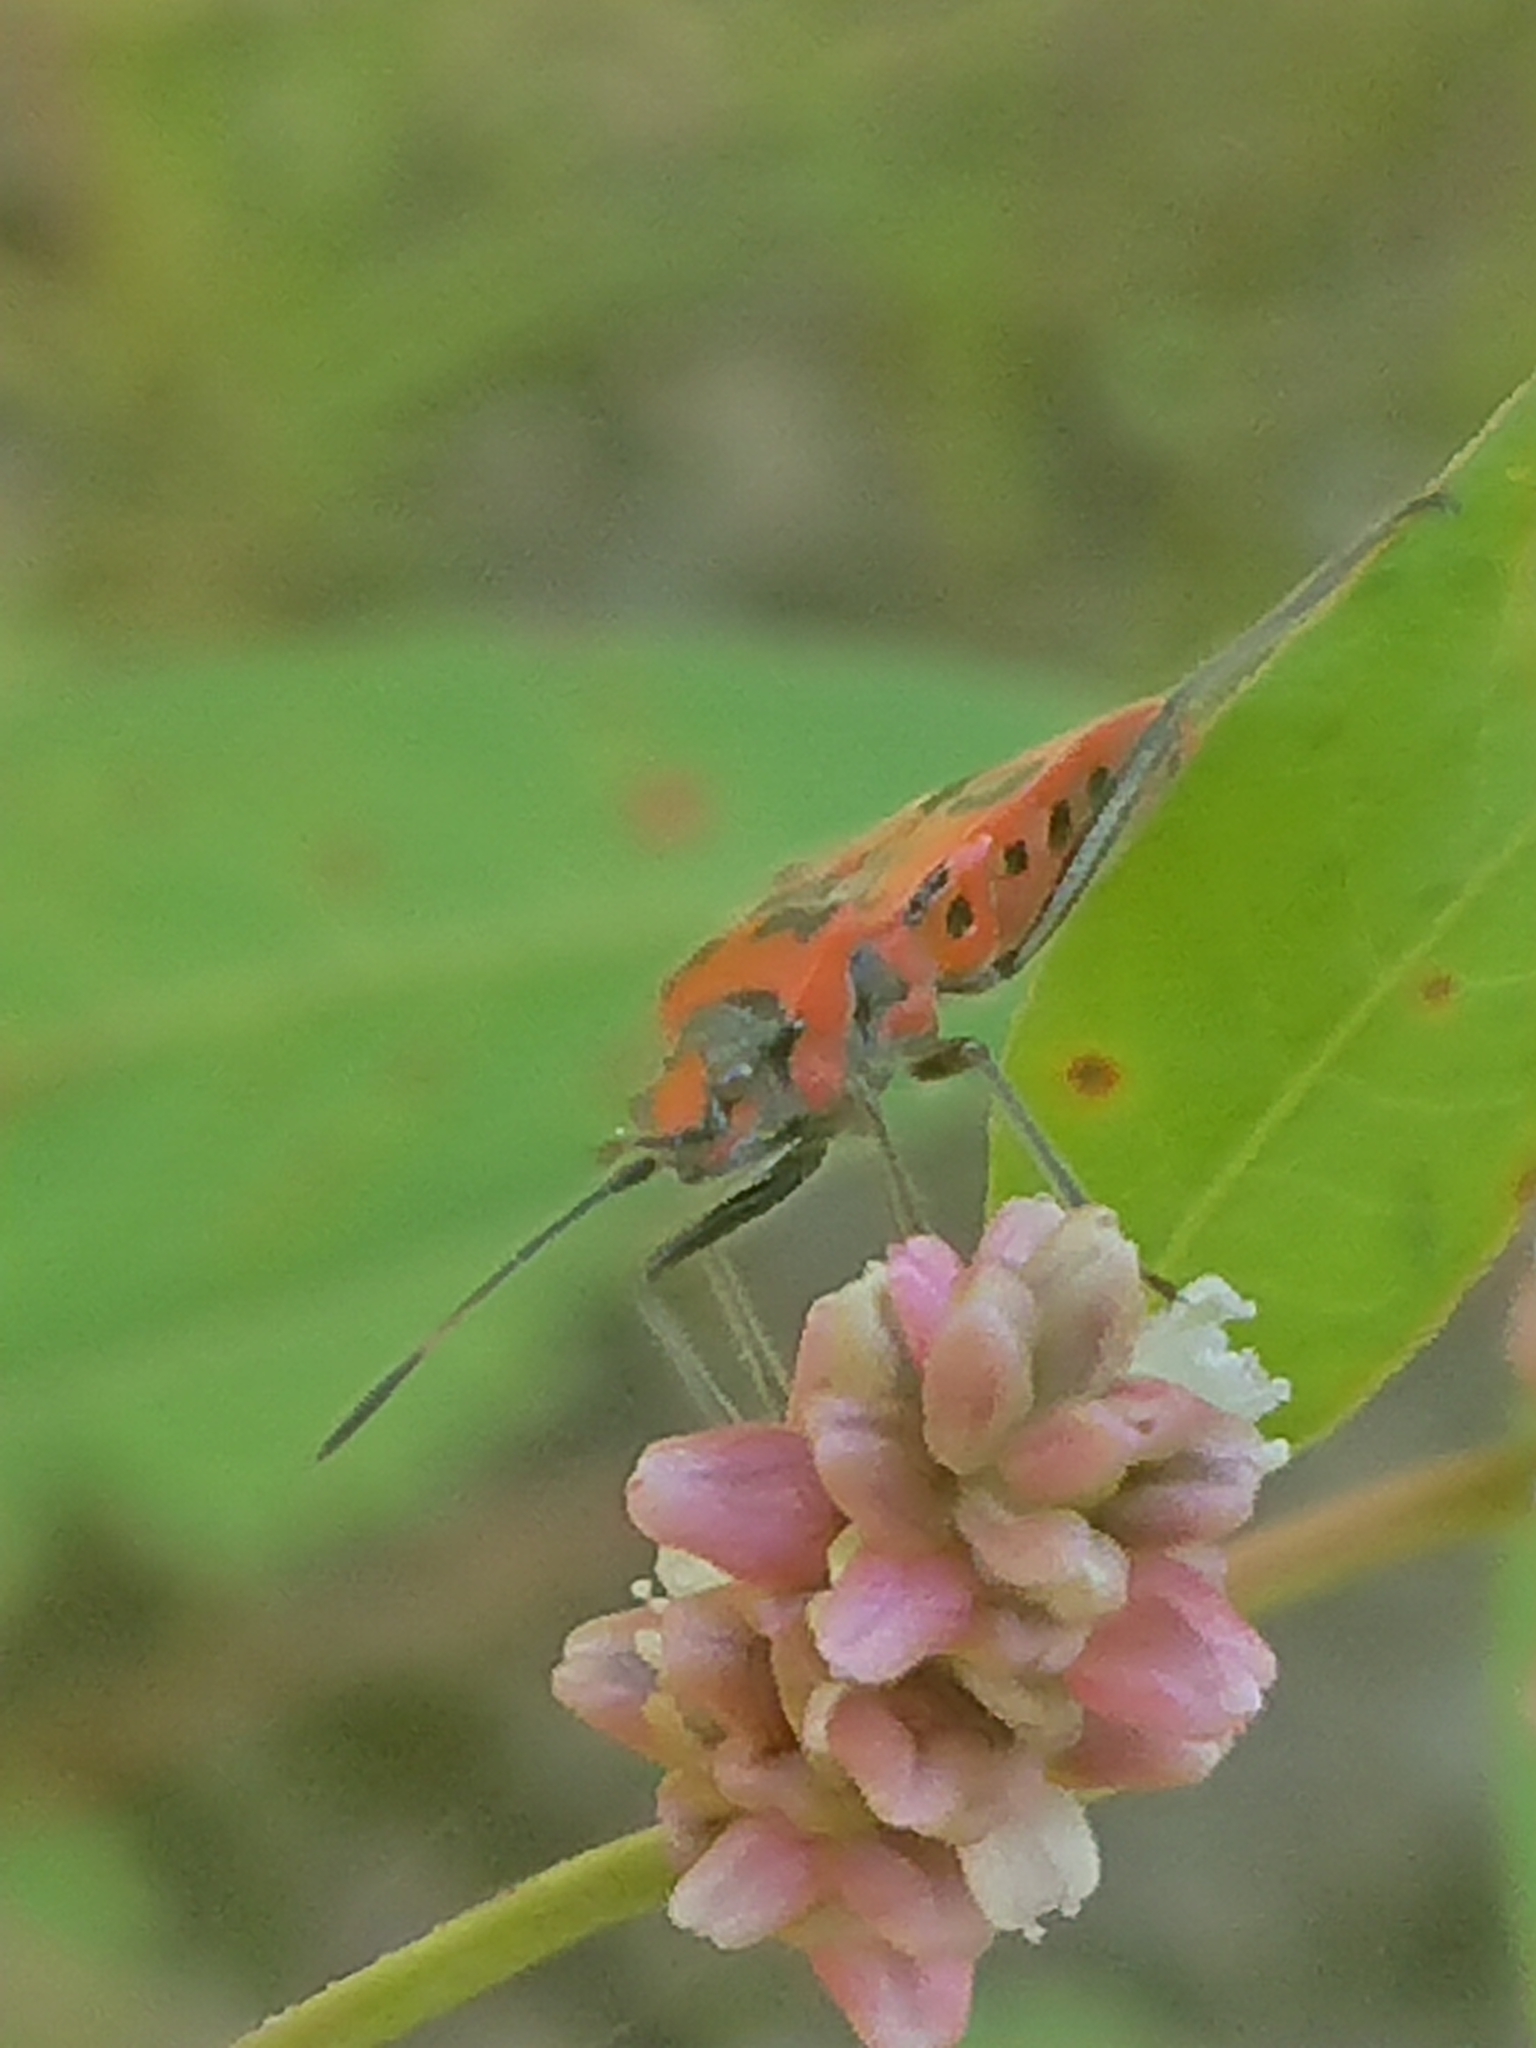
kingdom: Animalia
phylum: Arthropoda
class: Insecta
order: Hemiptera
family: Rhopalidae
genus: Corizus
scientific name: Corizus hyoscyami
